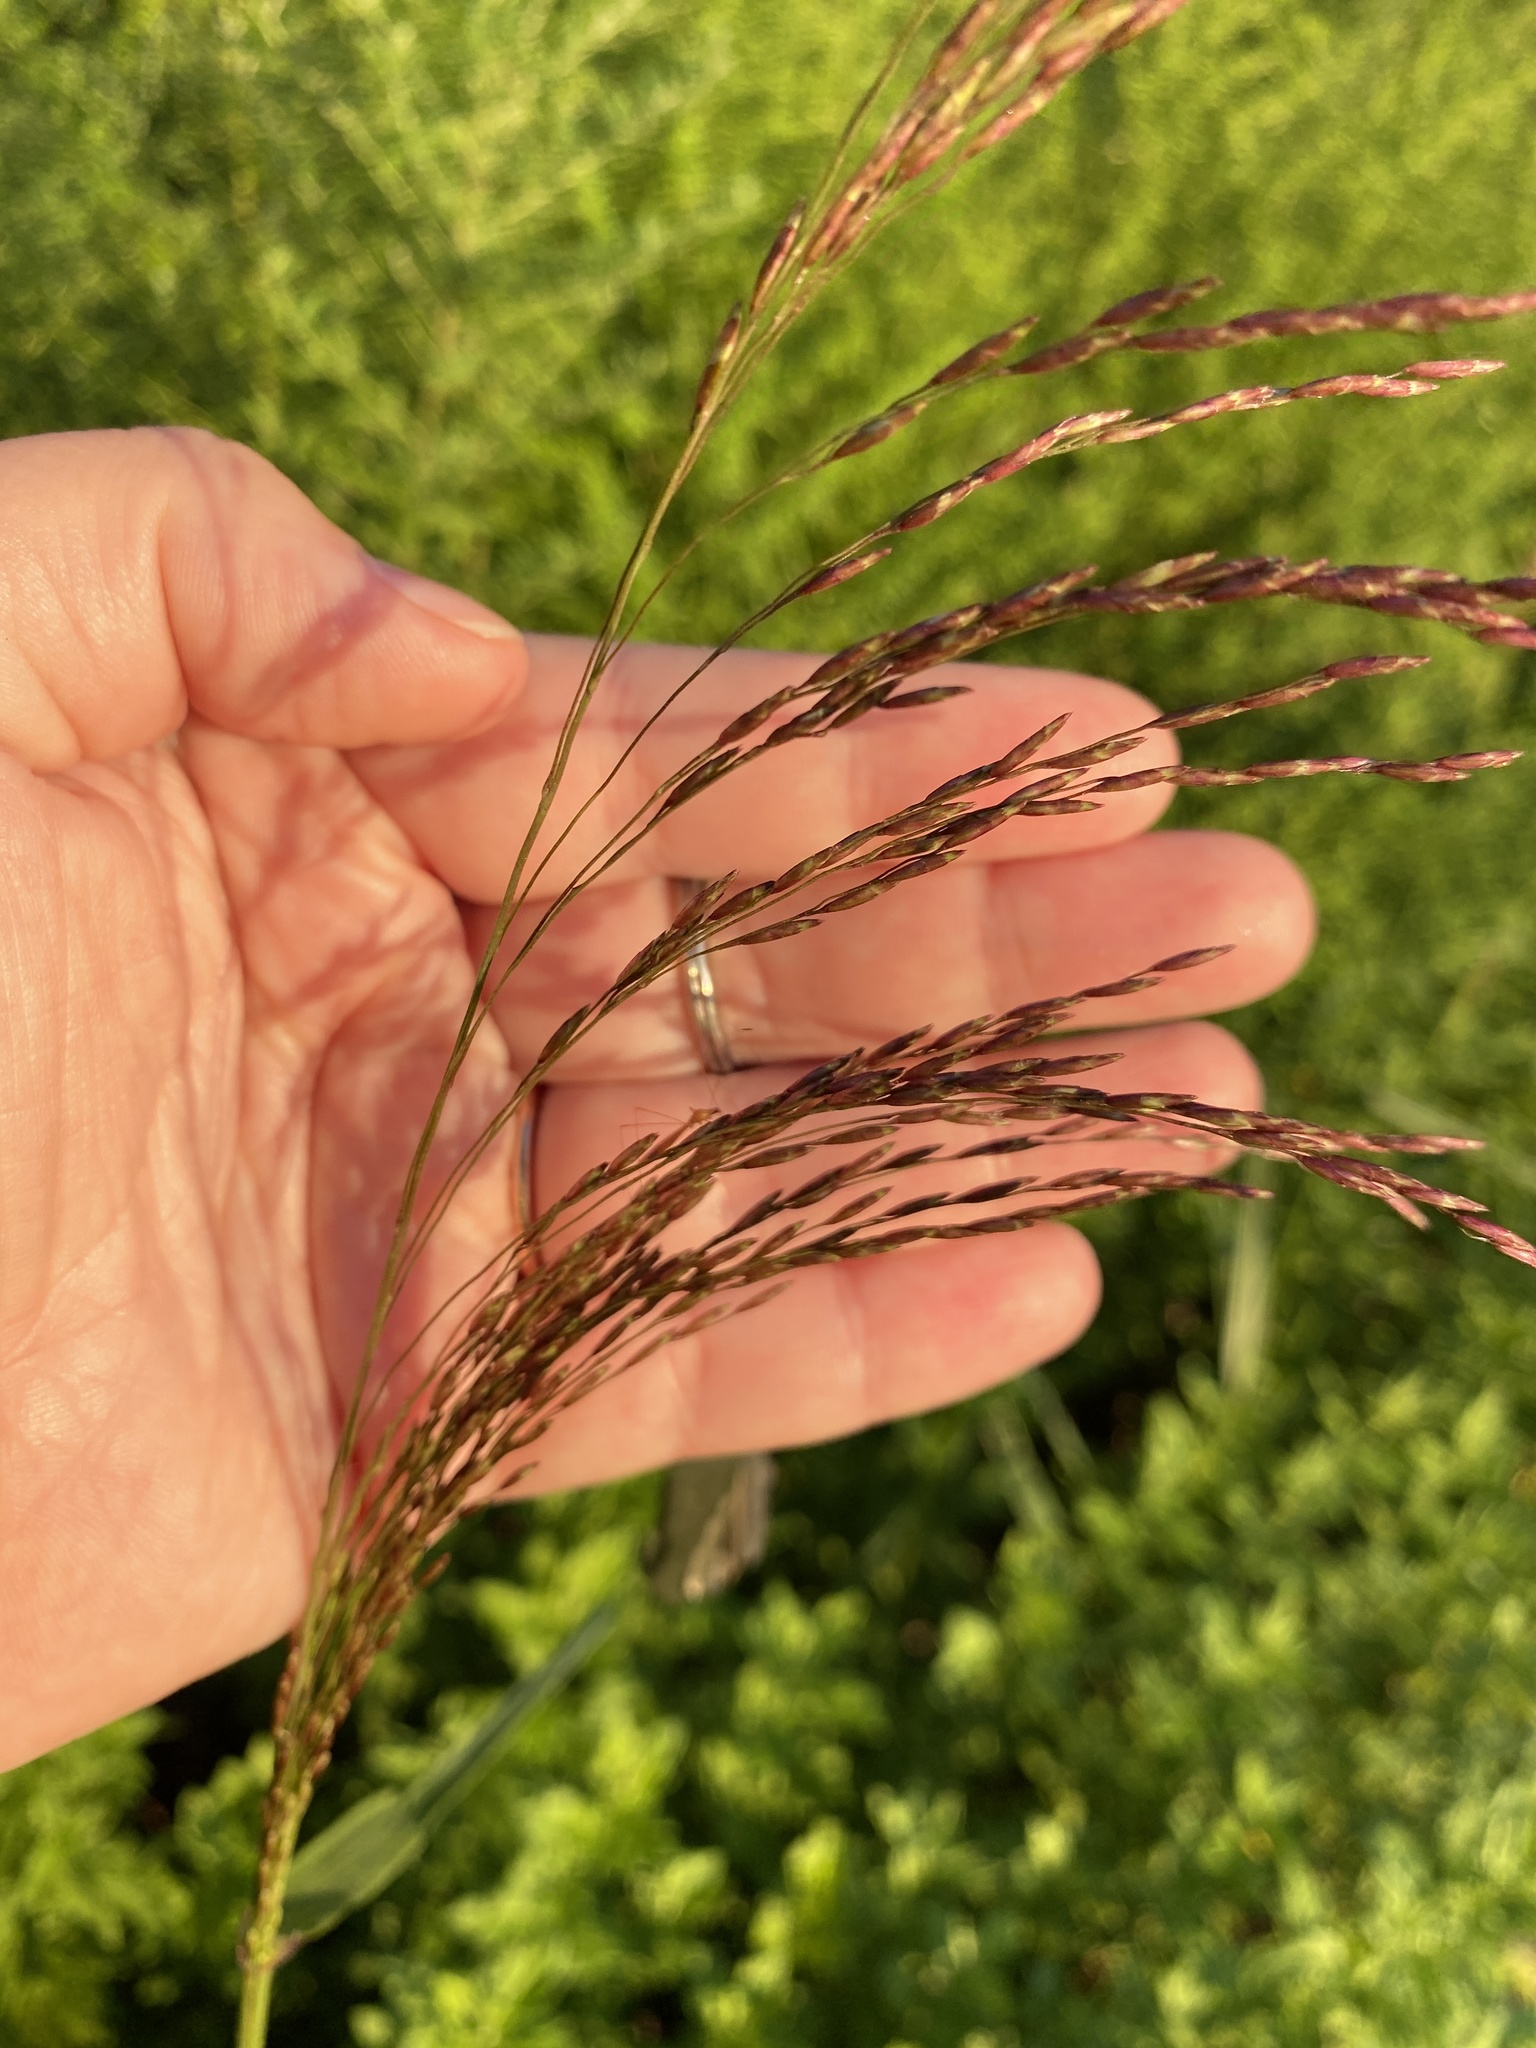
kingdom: Plantae
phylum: Tracheophyta
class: Liliopsida
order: Poales
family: Poaceae
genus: Tridens
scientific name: Tridens flavus
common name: Purpletop
